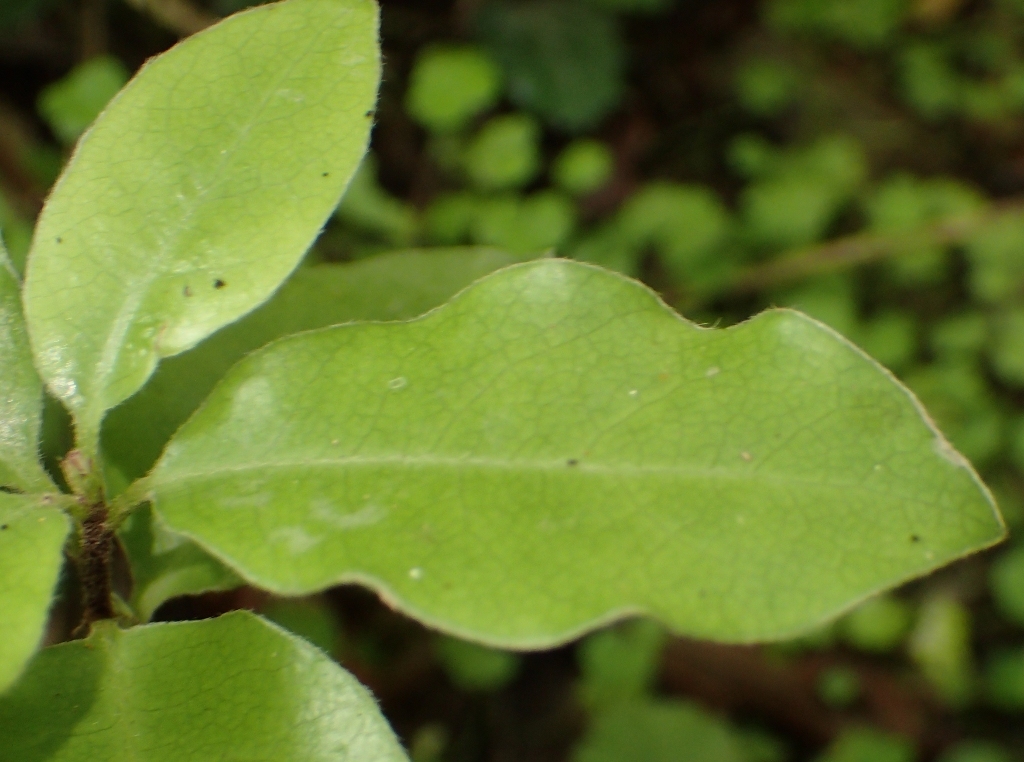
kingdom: Plantae
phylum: Tracheophyta
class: Magnoliopsida
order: Apiales
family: Pittosporaceae
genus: Pittosporum
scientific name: Pittosporum tenuifolium
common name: Kohuhu
